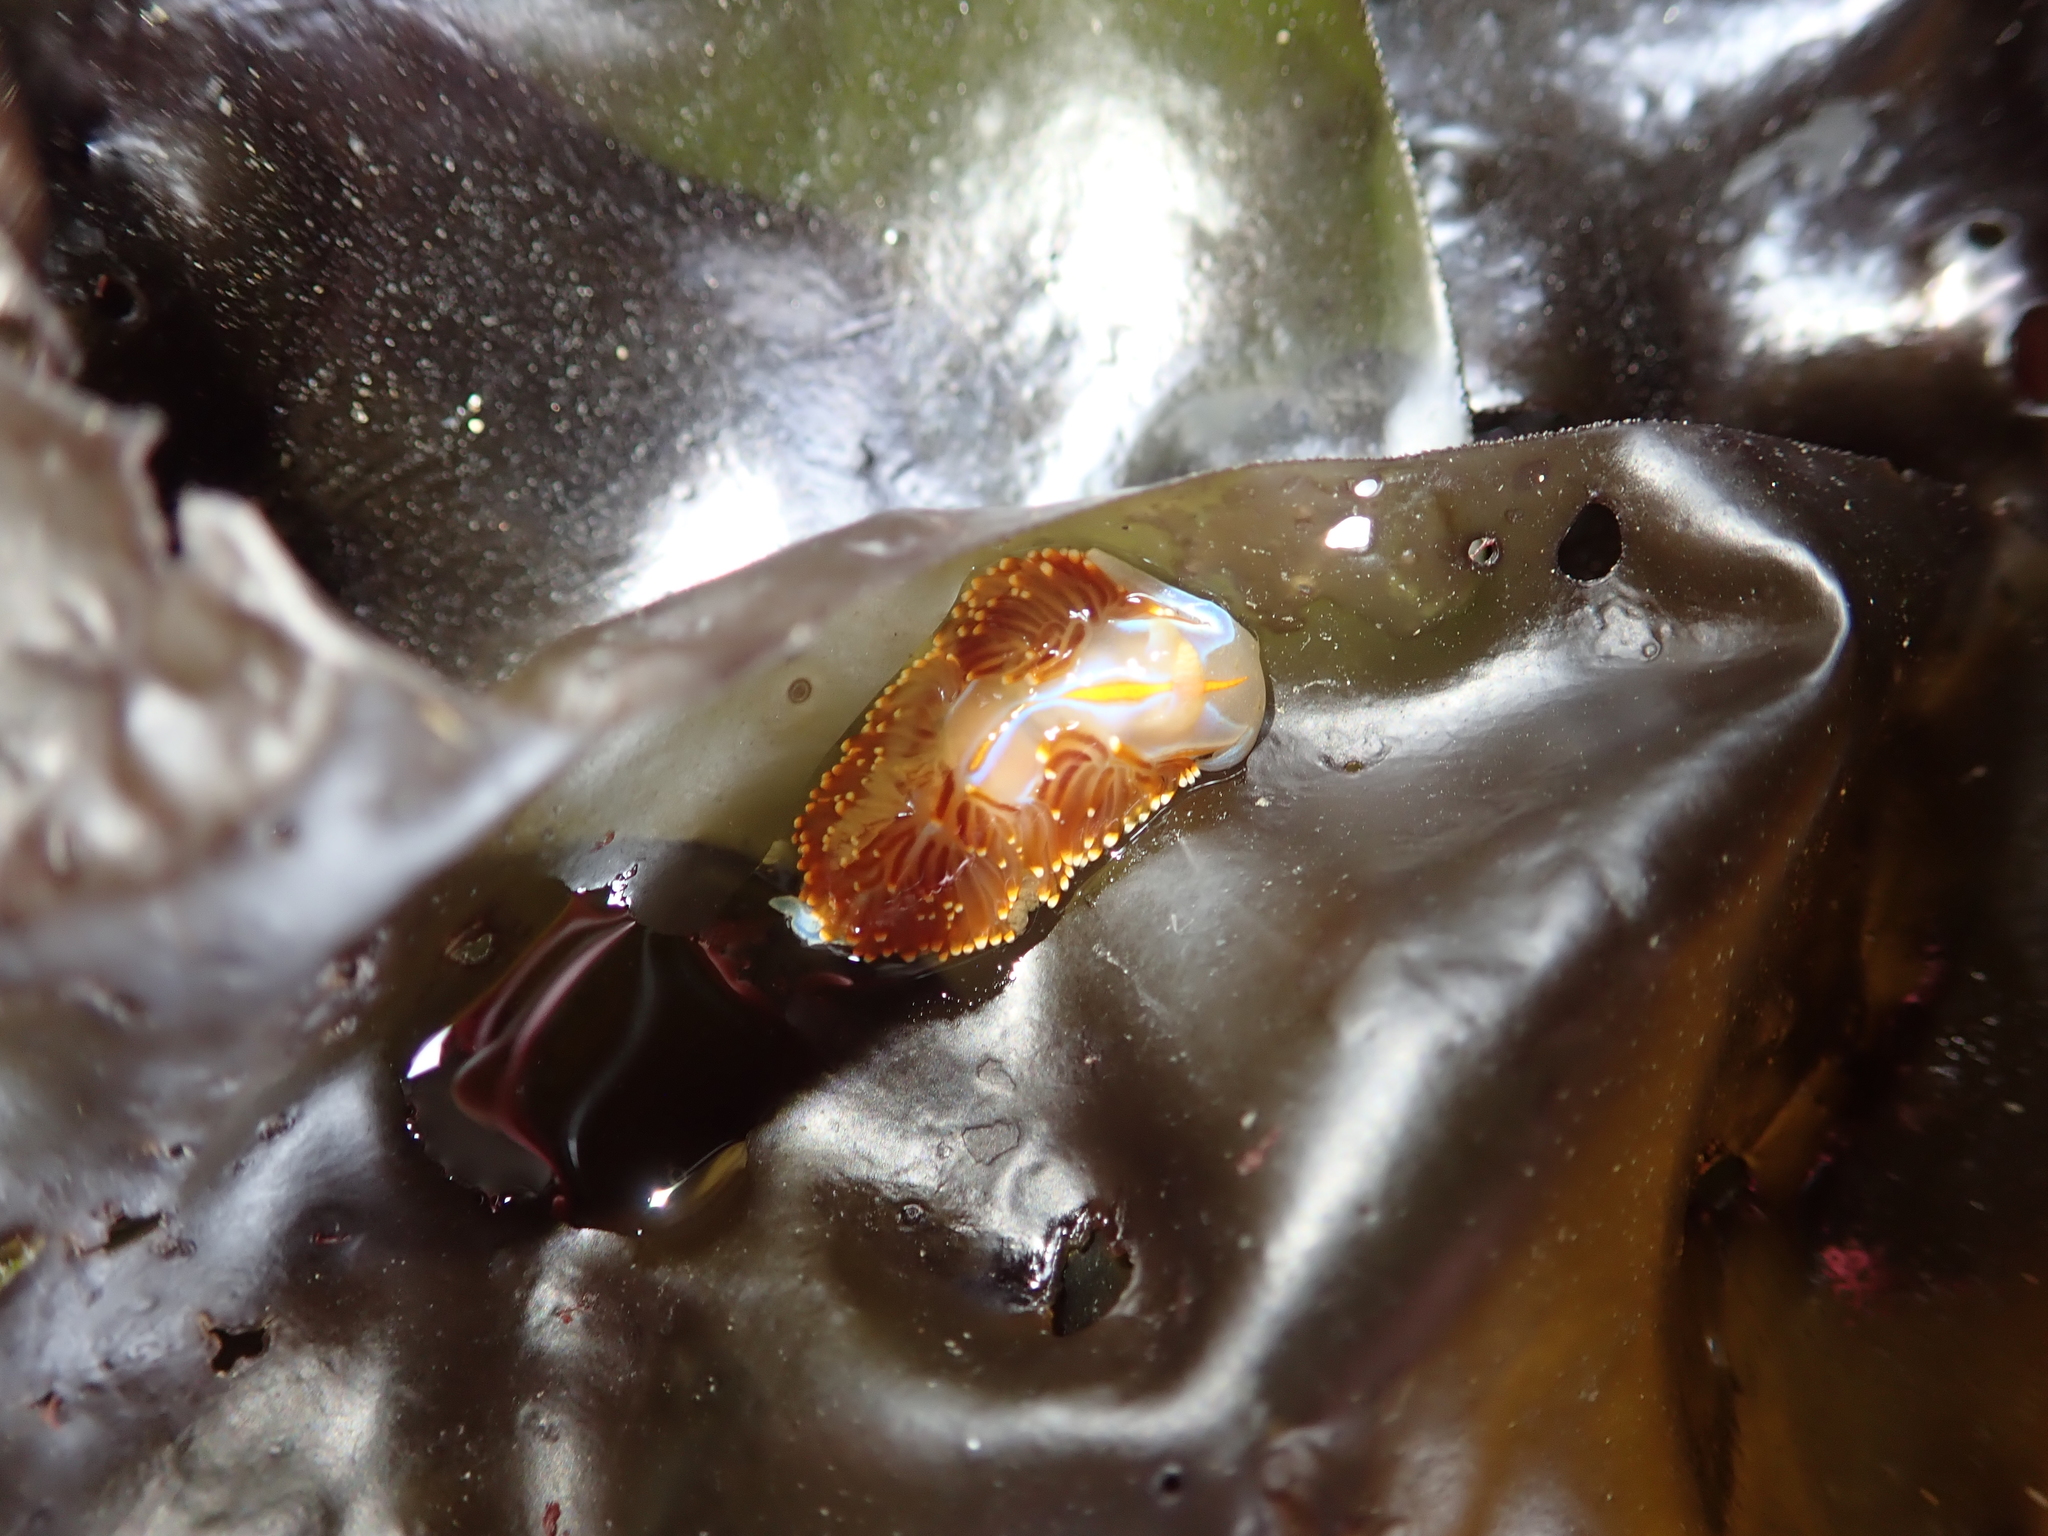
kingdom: Animalia
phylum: Mollusca
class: Gastropoda
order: Nudibranchia
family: Myrrhinidae
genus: Hermissenda
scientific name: Hermissenda opalescens
